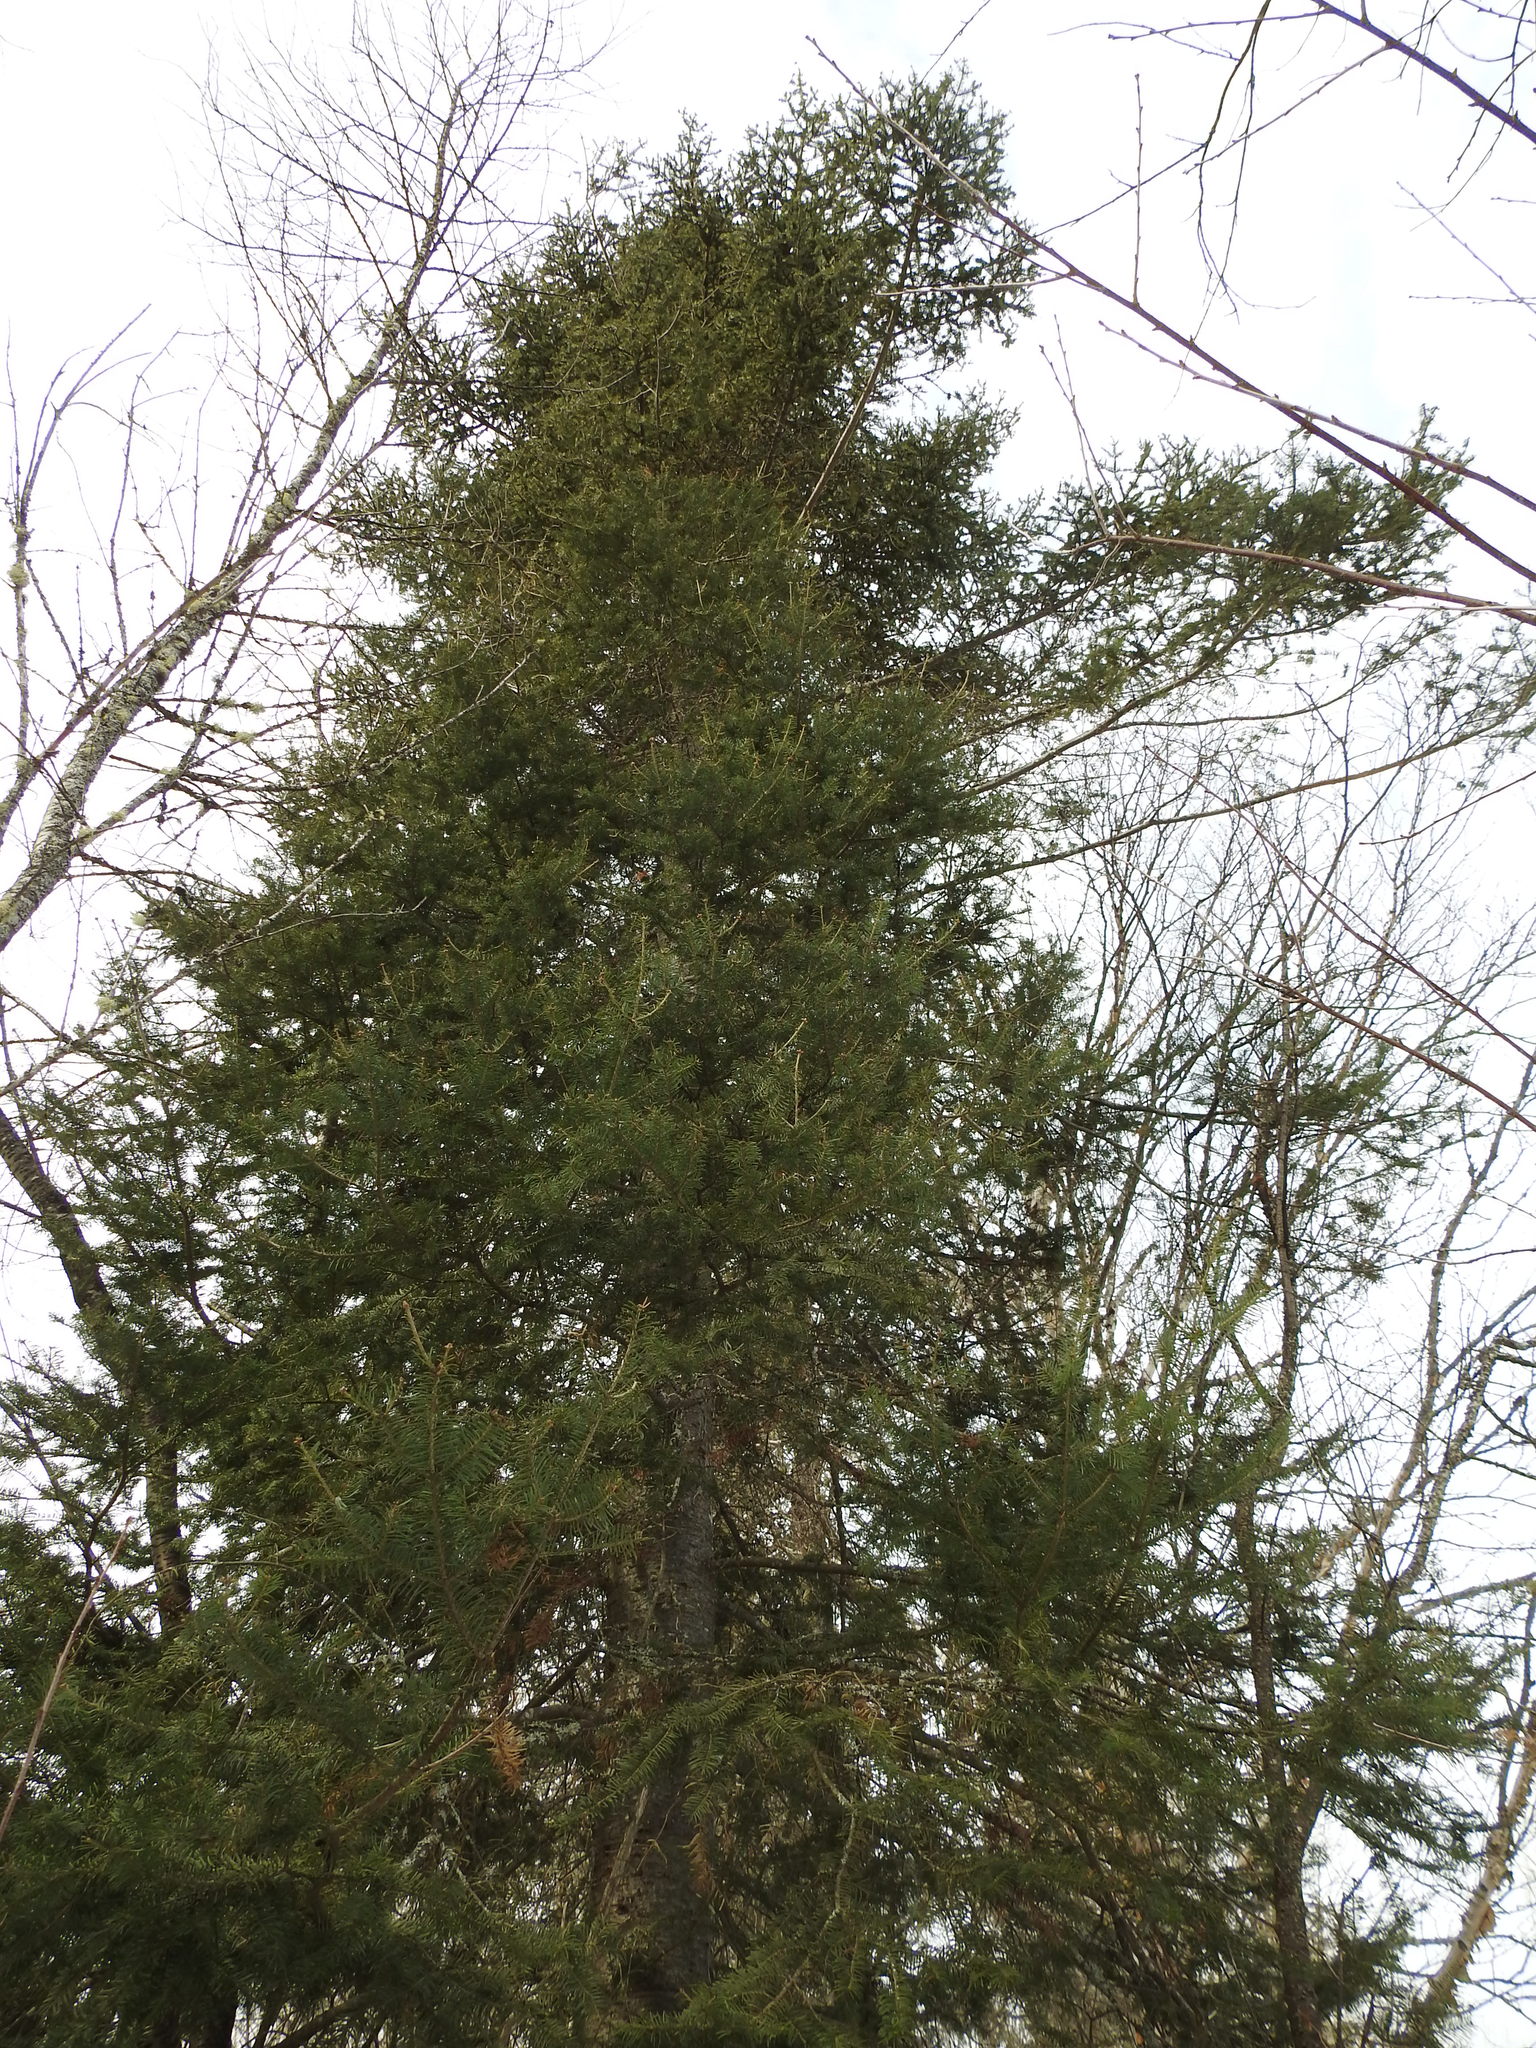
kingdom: Plantae
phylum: Tracheophyta
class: Pinopsida
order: Pinales
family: Pinaceae
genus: Abies
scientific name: Abies balsamea
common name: Balsam fir
